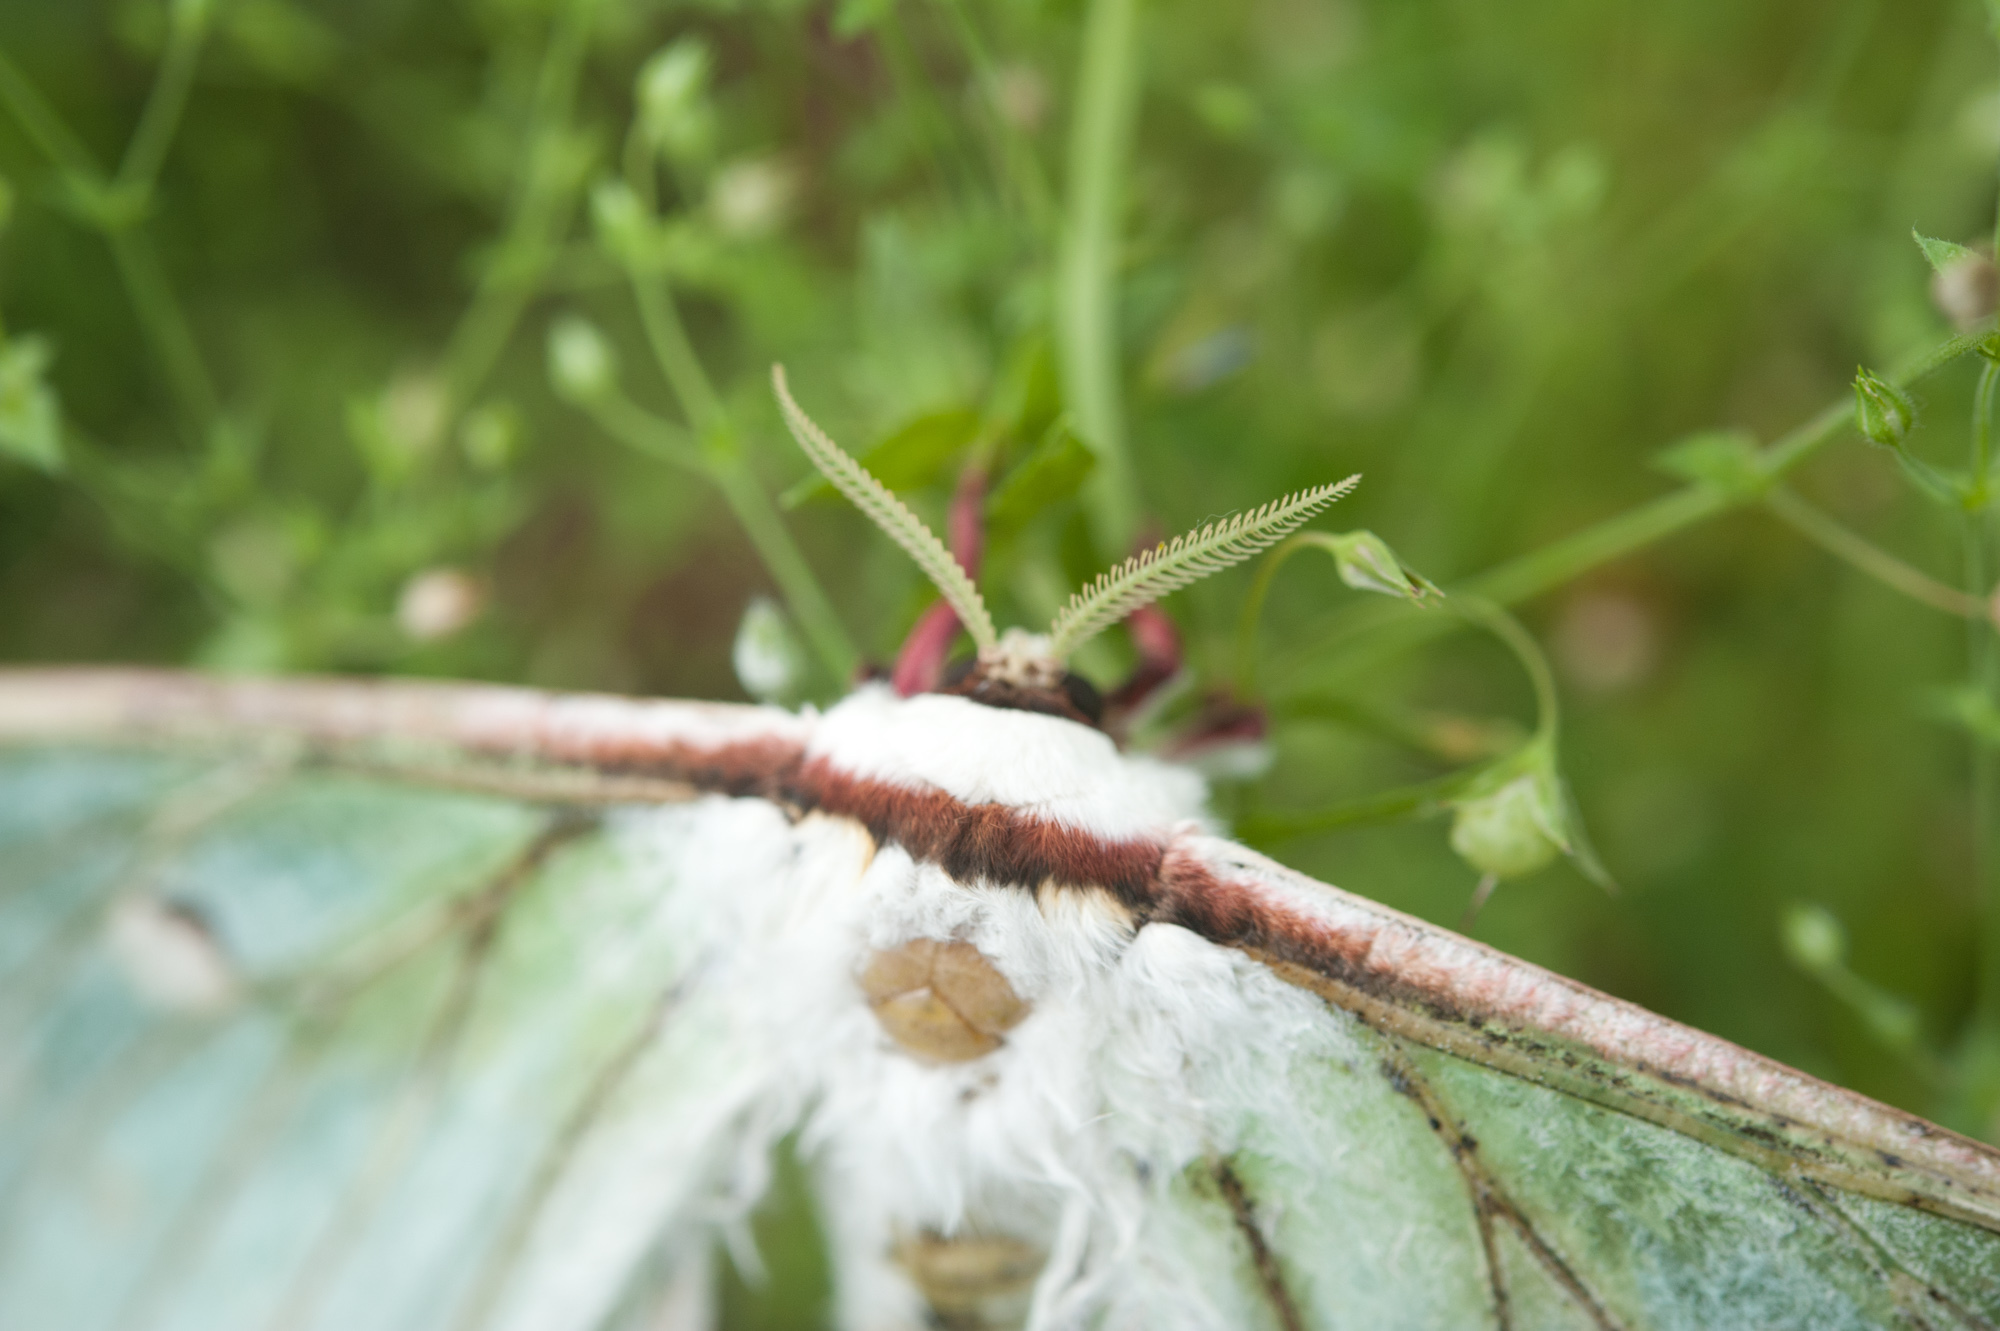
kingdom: Animalia
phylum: Arthropoda
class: Insecta
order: Lepidoptera
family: Saturniidae
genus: Actias
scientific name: Actias ningpoana
